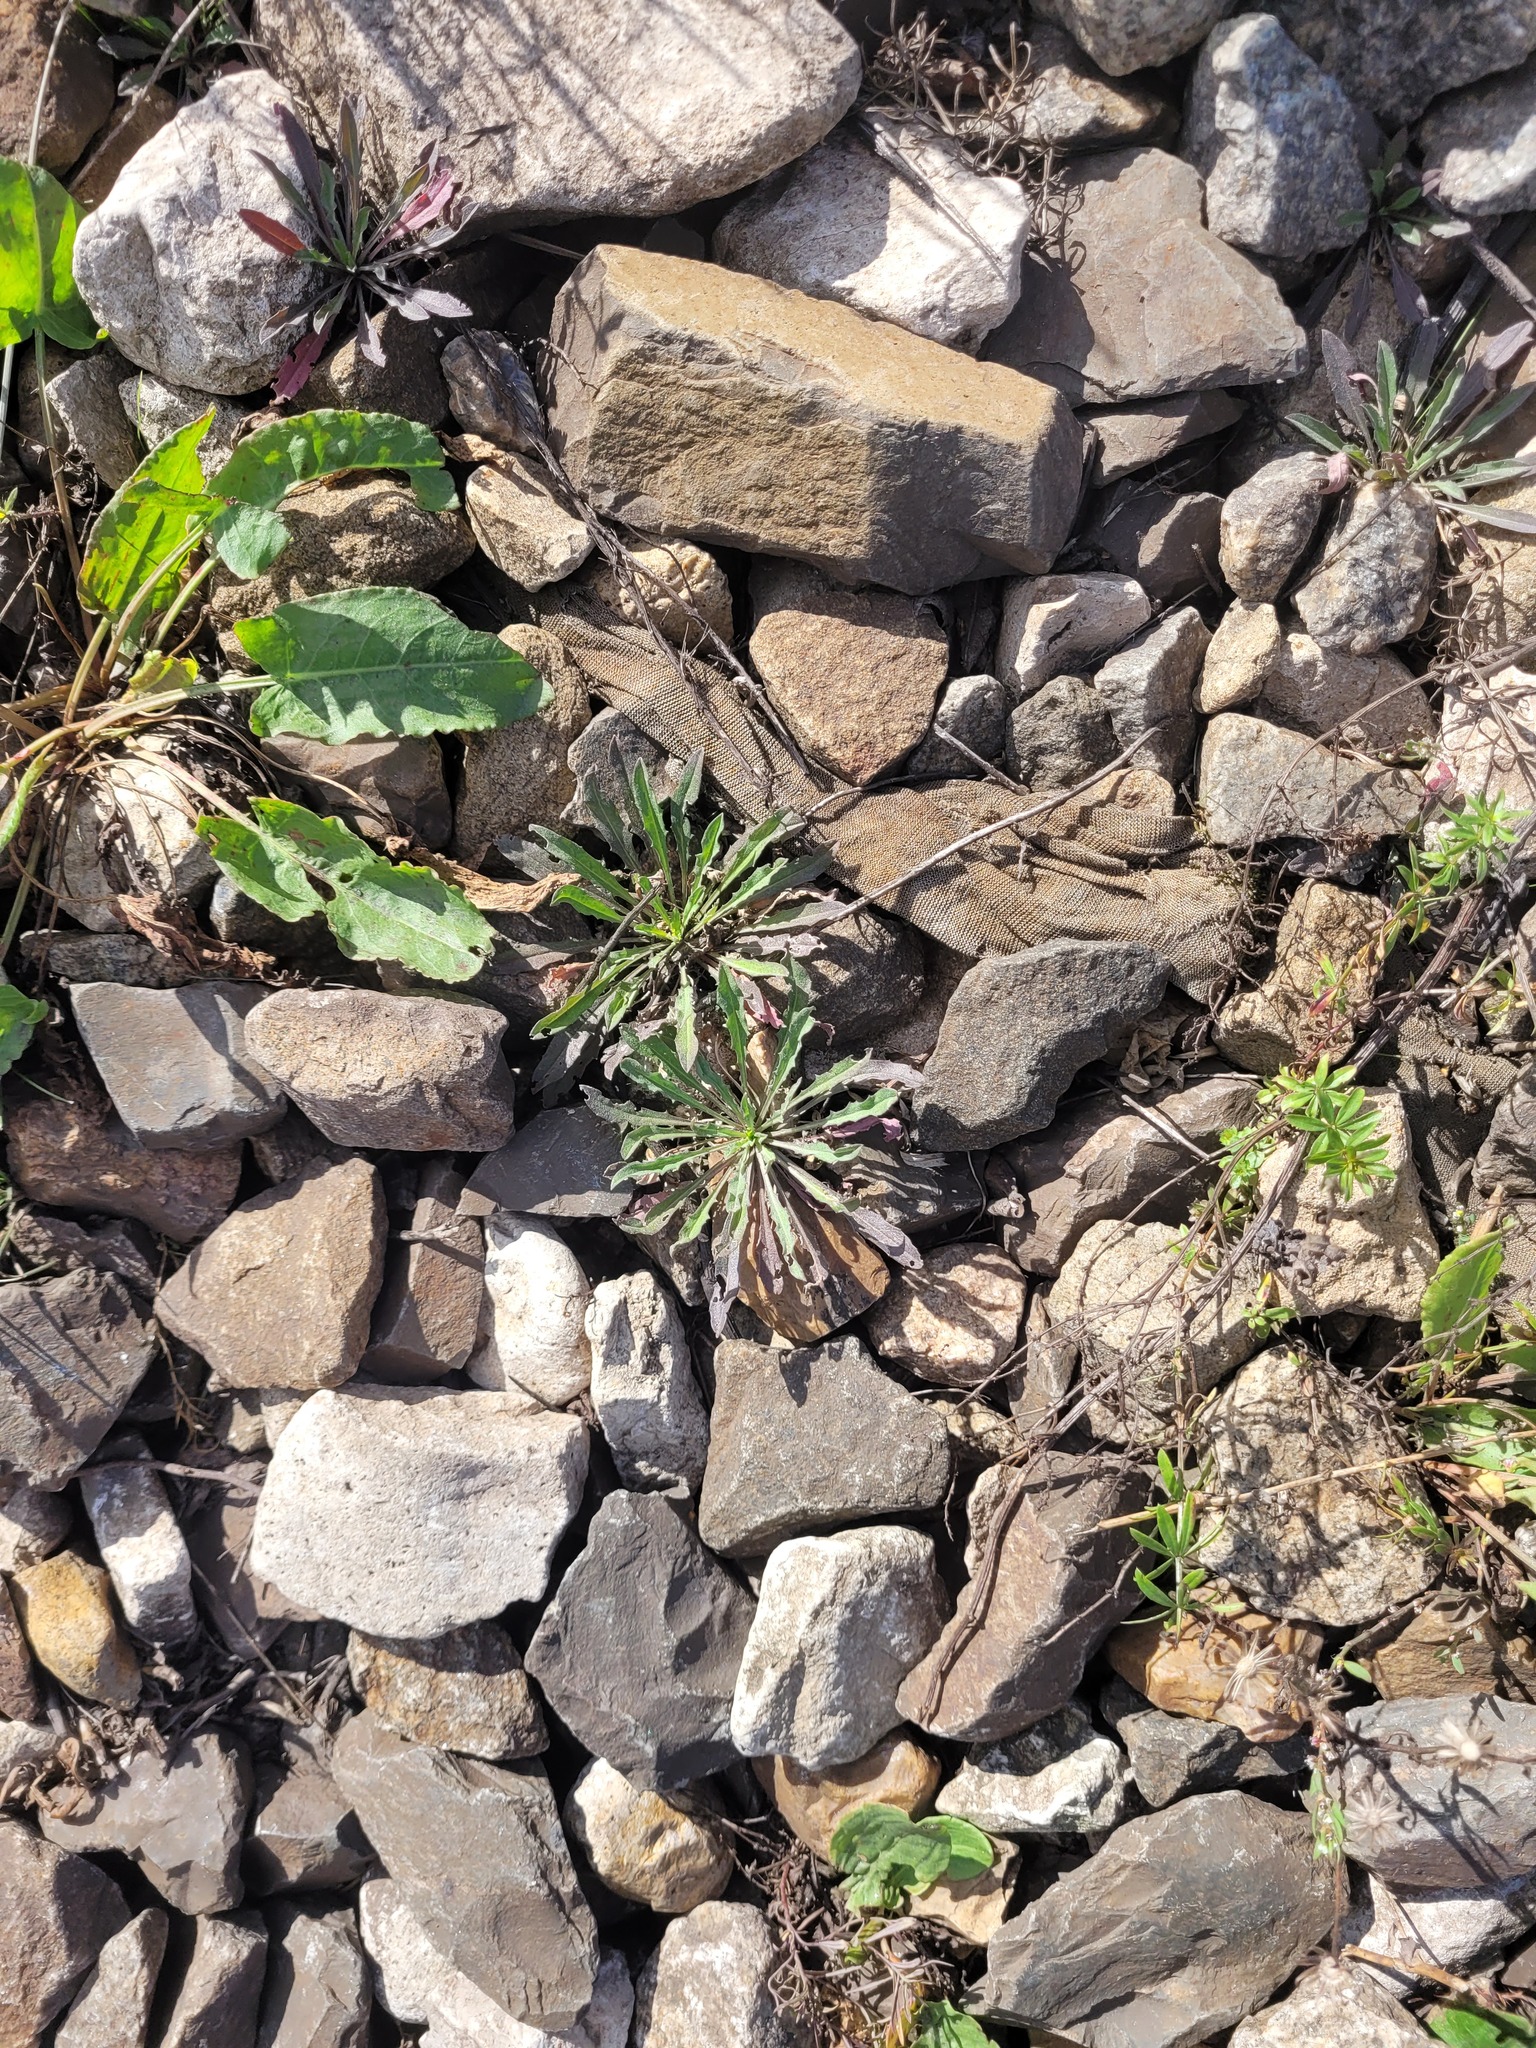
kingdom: Plantae
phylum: Tracheophyta
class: Magnoliopsida
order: Brassicales
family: Brassicaceae
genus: Erysimum
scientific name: Erysimum hieraciifolium
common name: European wallflower
